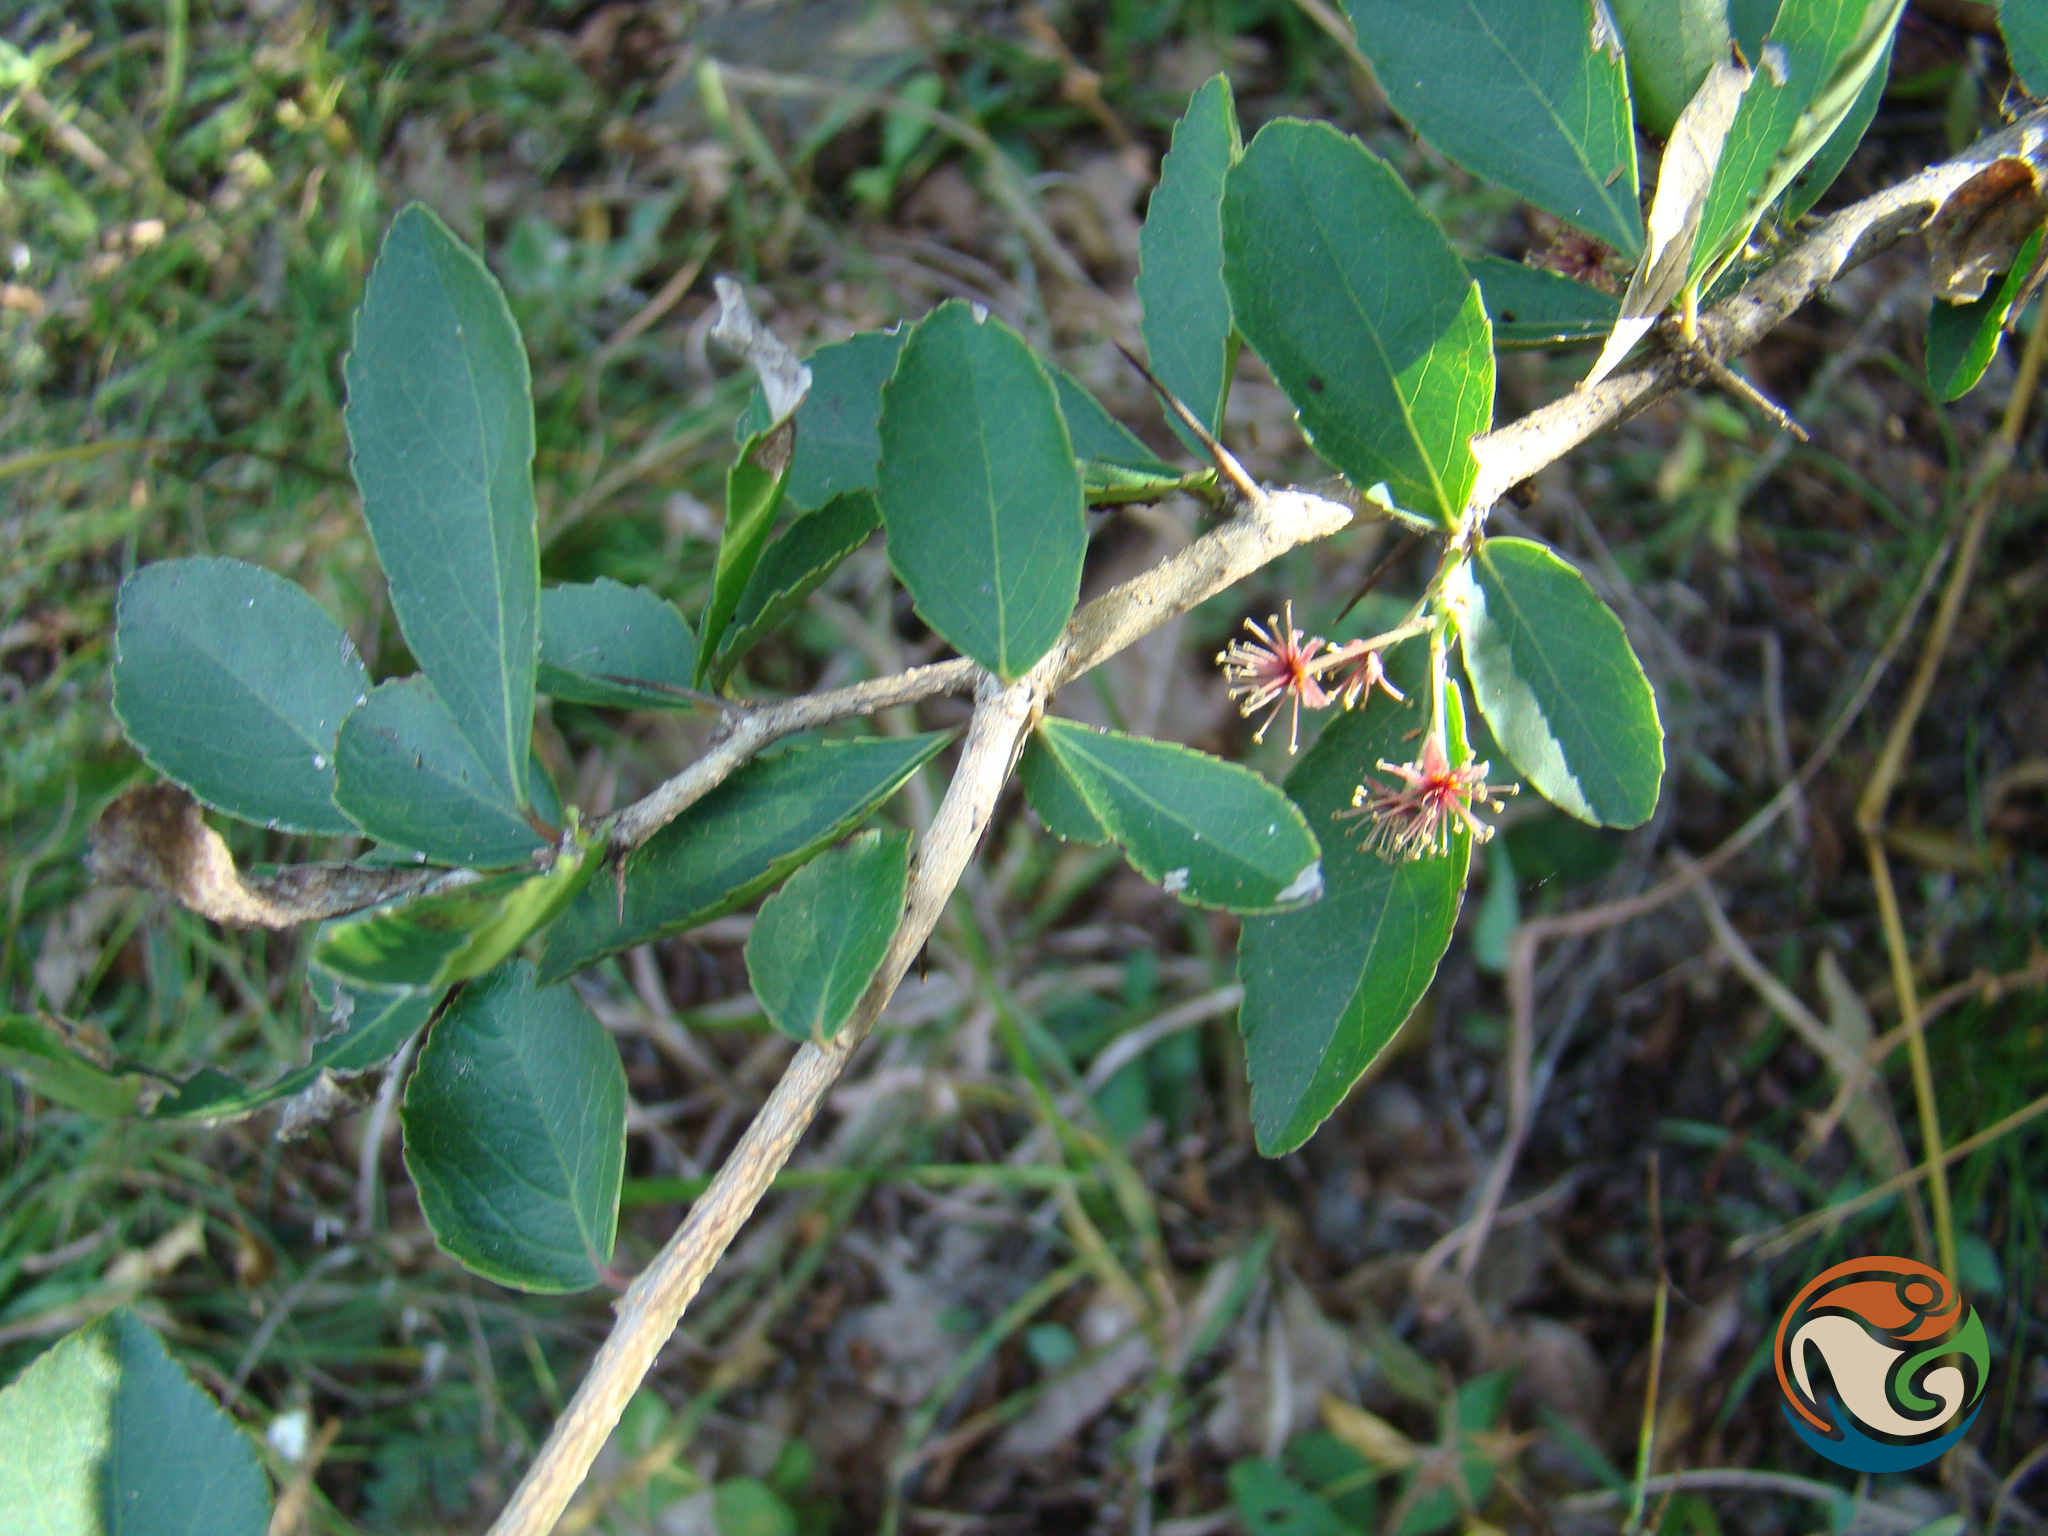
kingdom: Plantae
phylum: Tracheophyta
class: Magnoliopsida
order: Malpighiales
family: Salicaceae
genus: Xylosma
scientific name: Xylosma flexuosa
